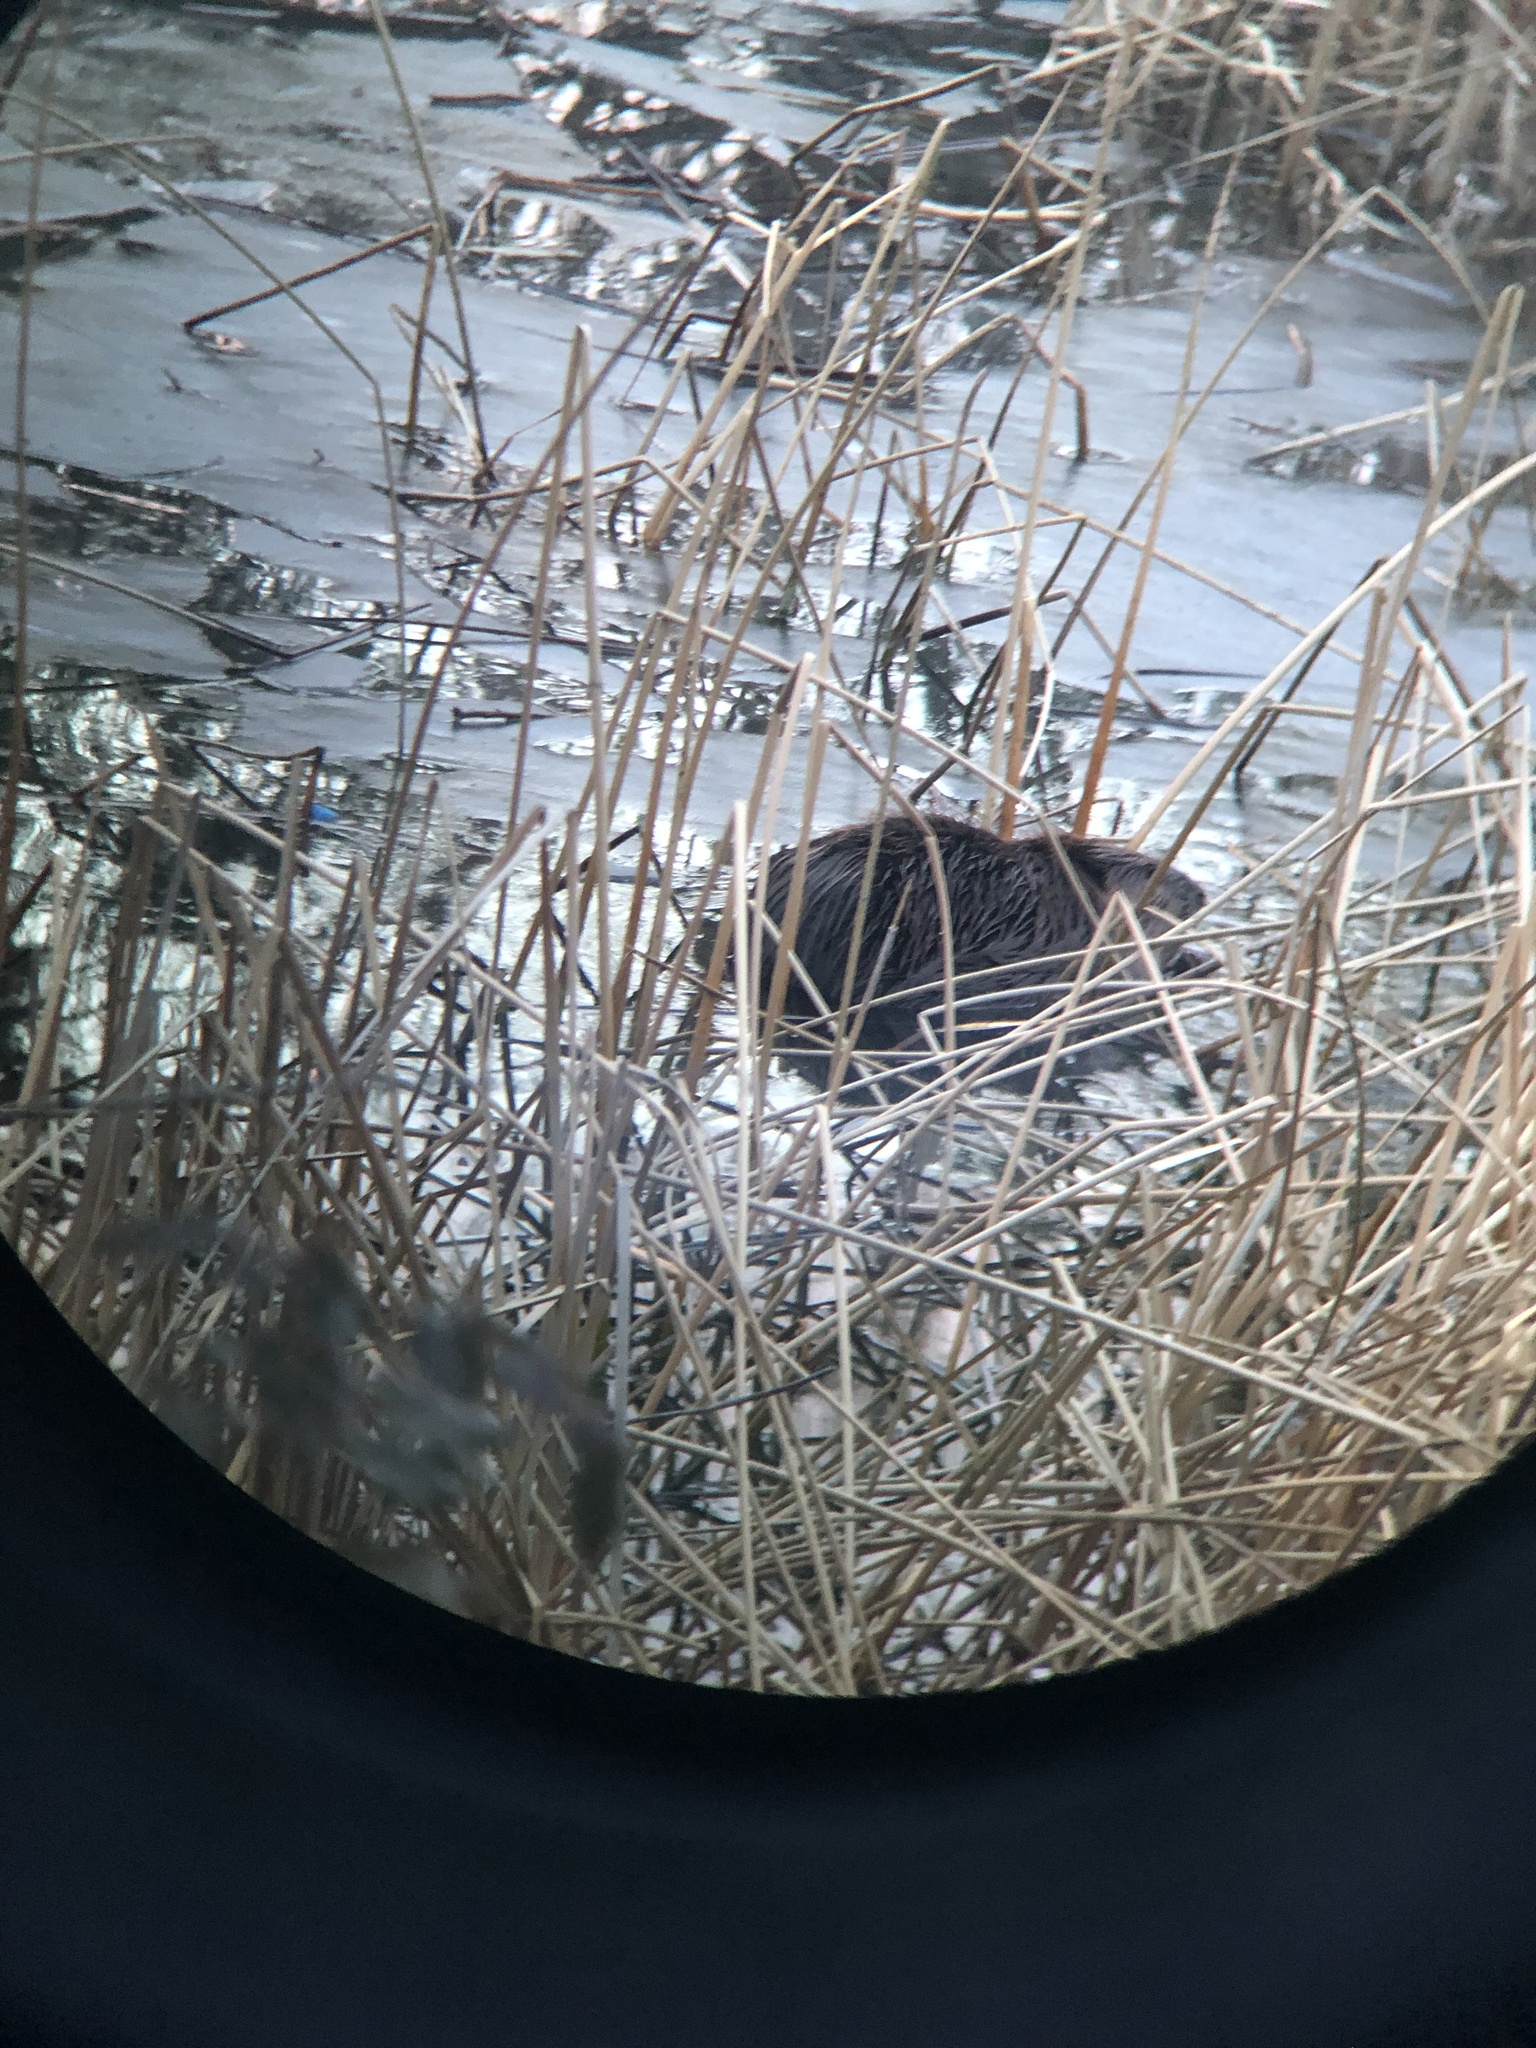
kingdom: Animalia
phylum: Chordata
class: Mammalia
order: Rodentia
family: Castoridae
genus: Castor
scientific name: Castor canadensis
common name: American beaver
